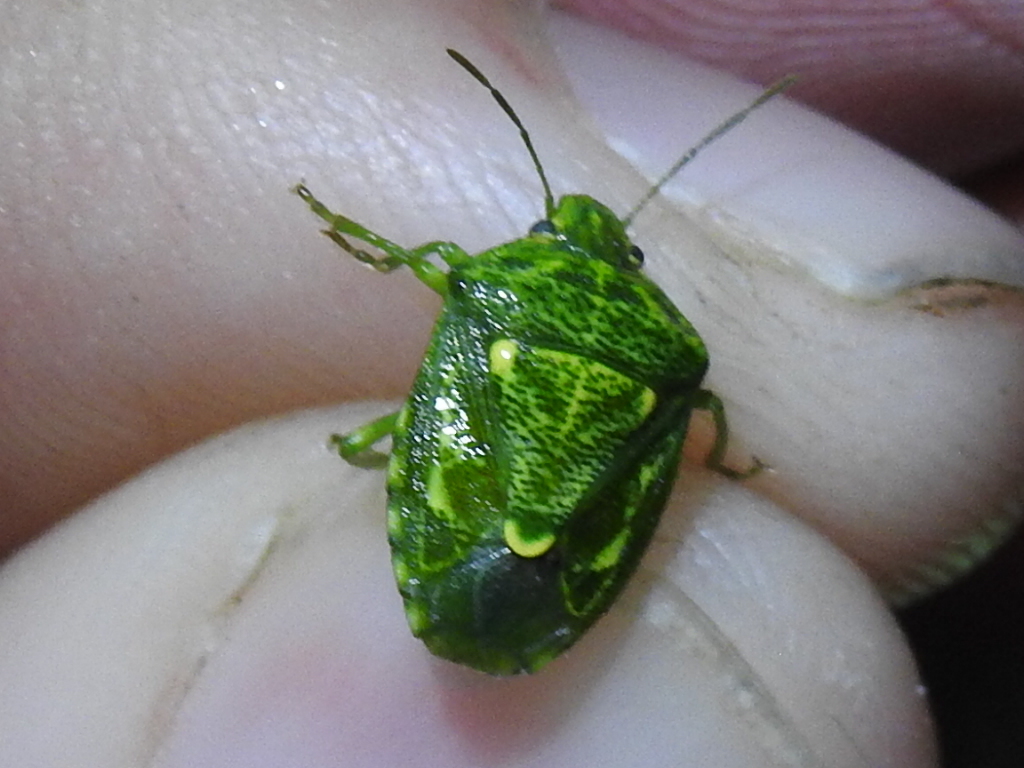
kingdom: Animalia
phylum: Arthropoda
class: Insecta
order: Hemiptera
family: Pentatomidae
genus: Banasa
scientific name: Banasa euchlora
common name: Cedar berry bug
